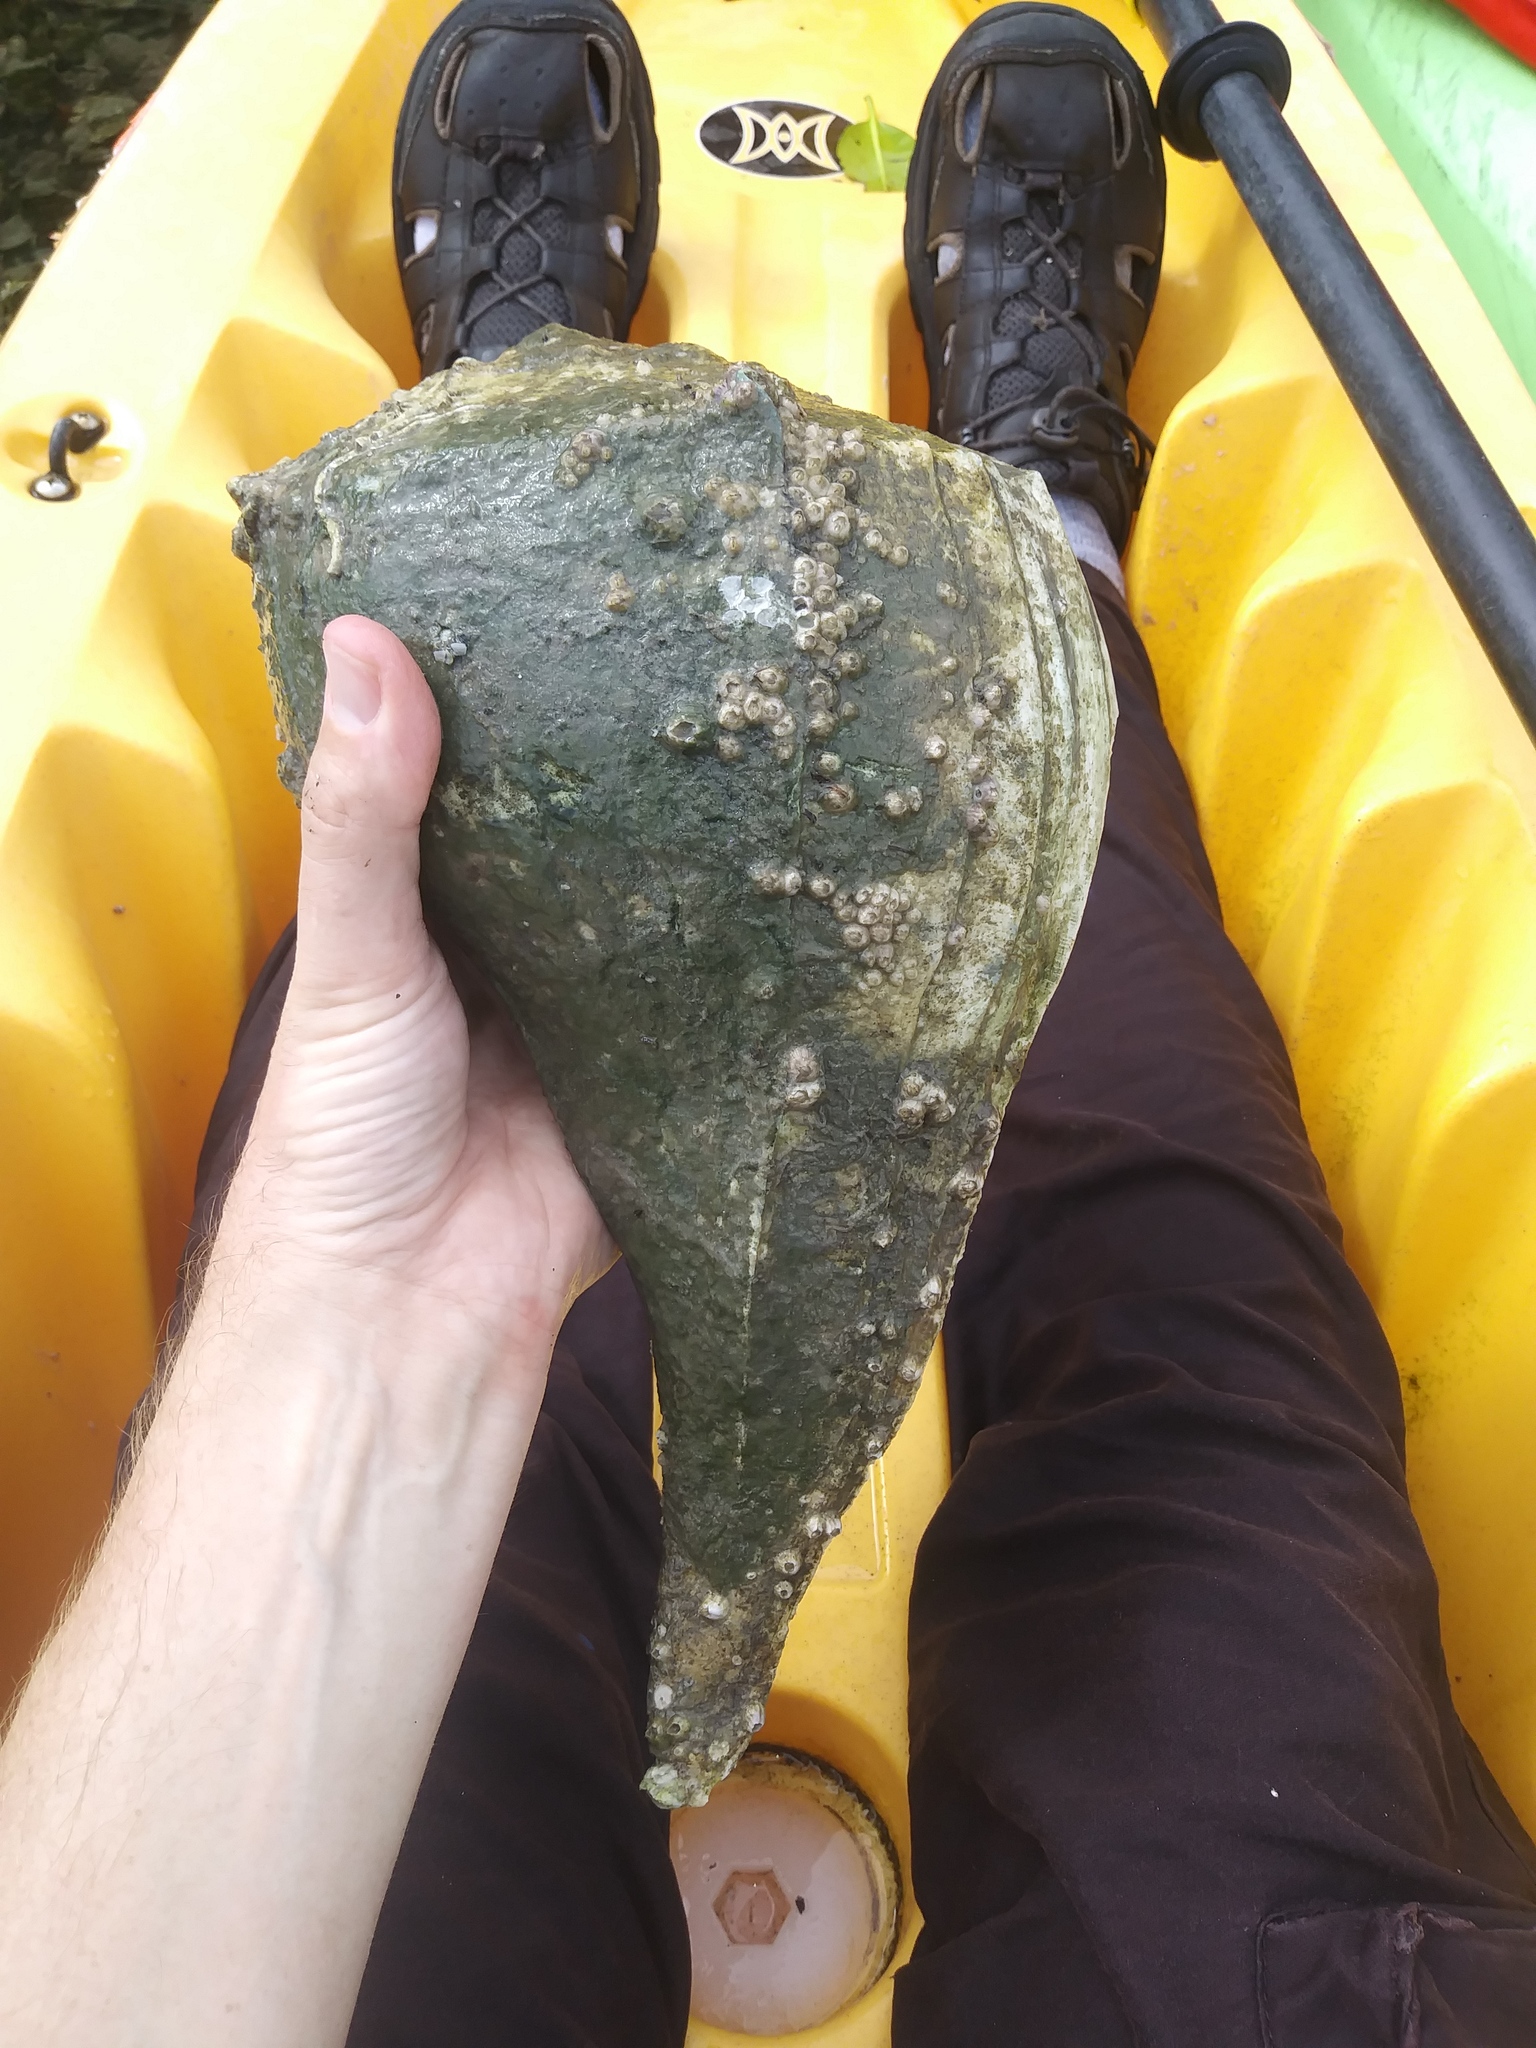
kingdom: Animalia
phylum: Mollusca
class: Gastropoda
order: Neogastropoda
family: Busyconidae
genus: Sinistrofulgur
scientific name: Sinistrofulgur sinistrum
